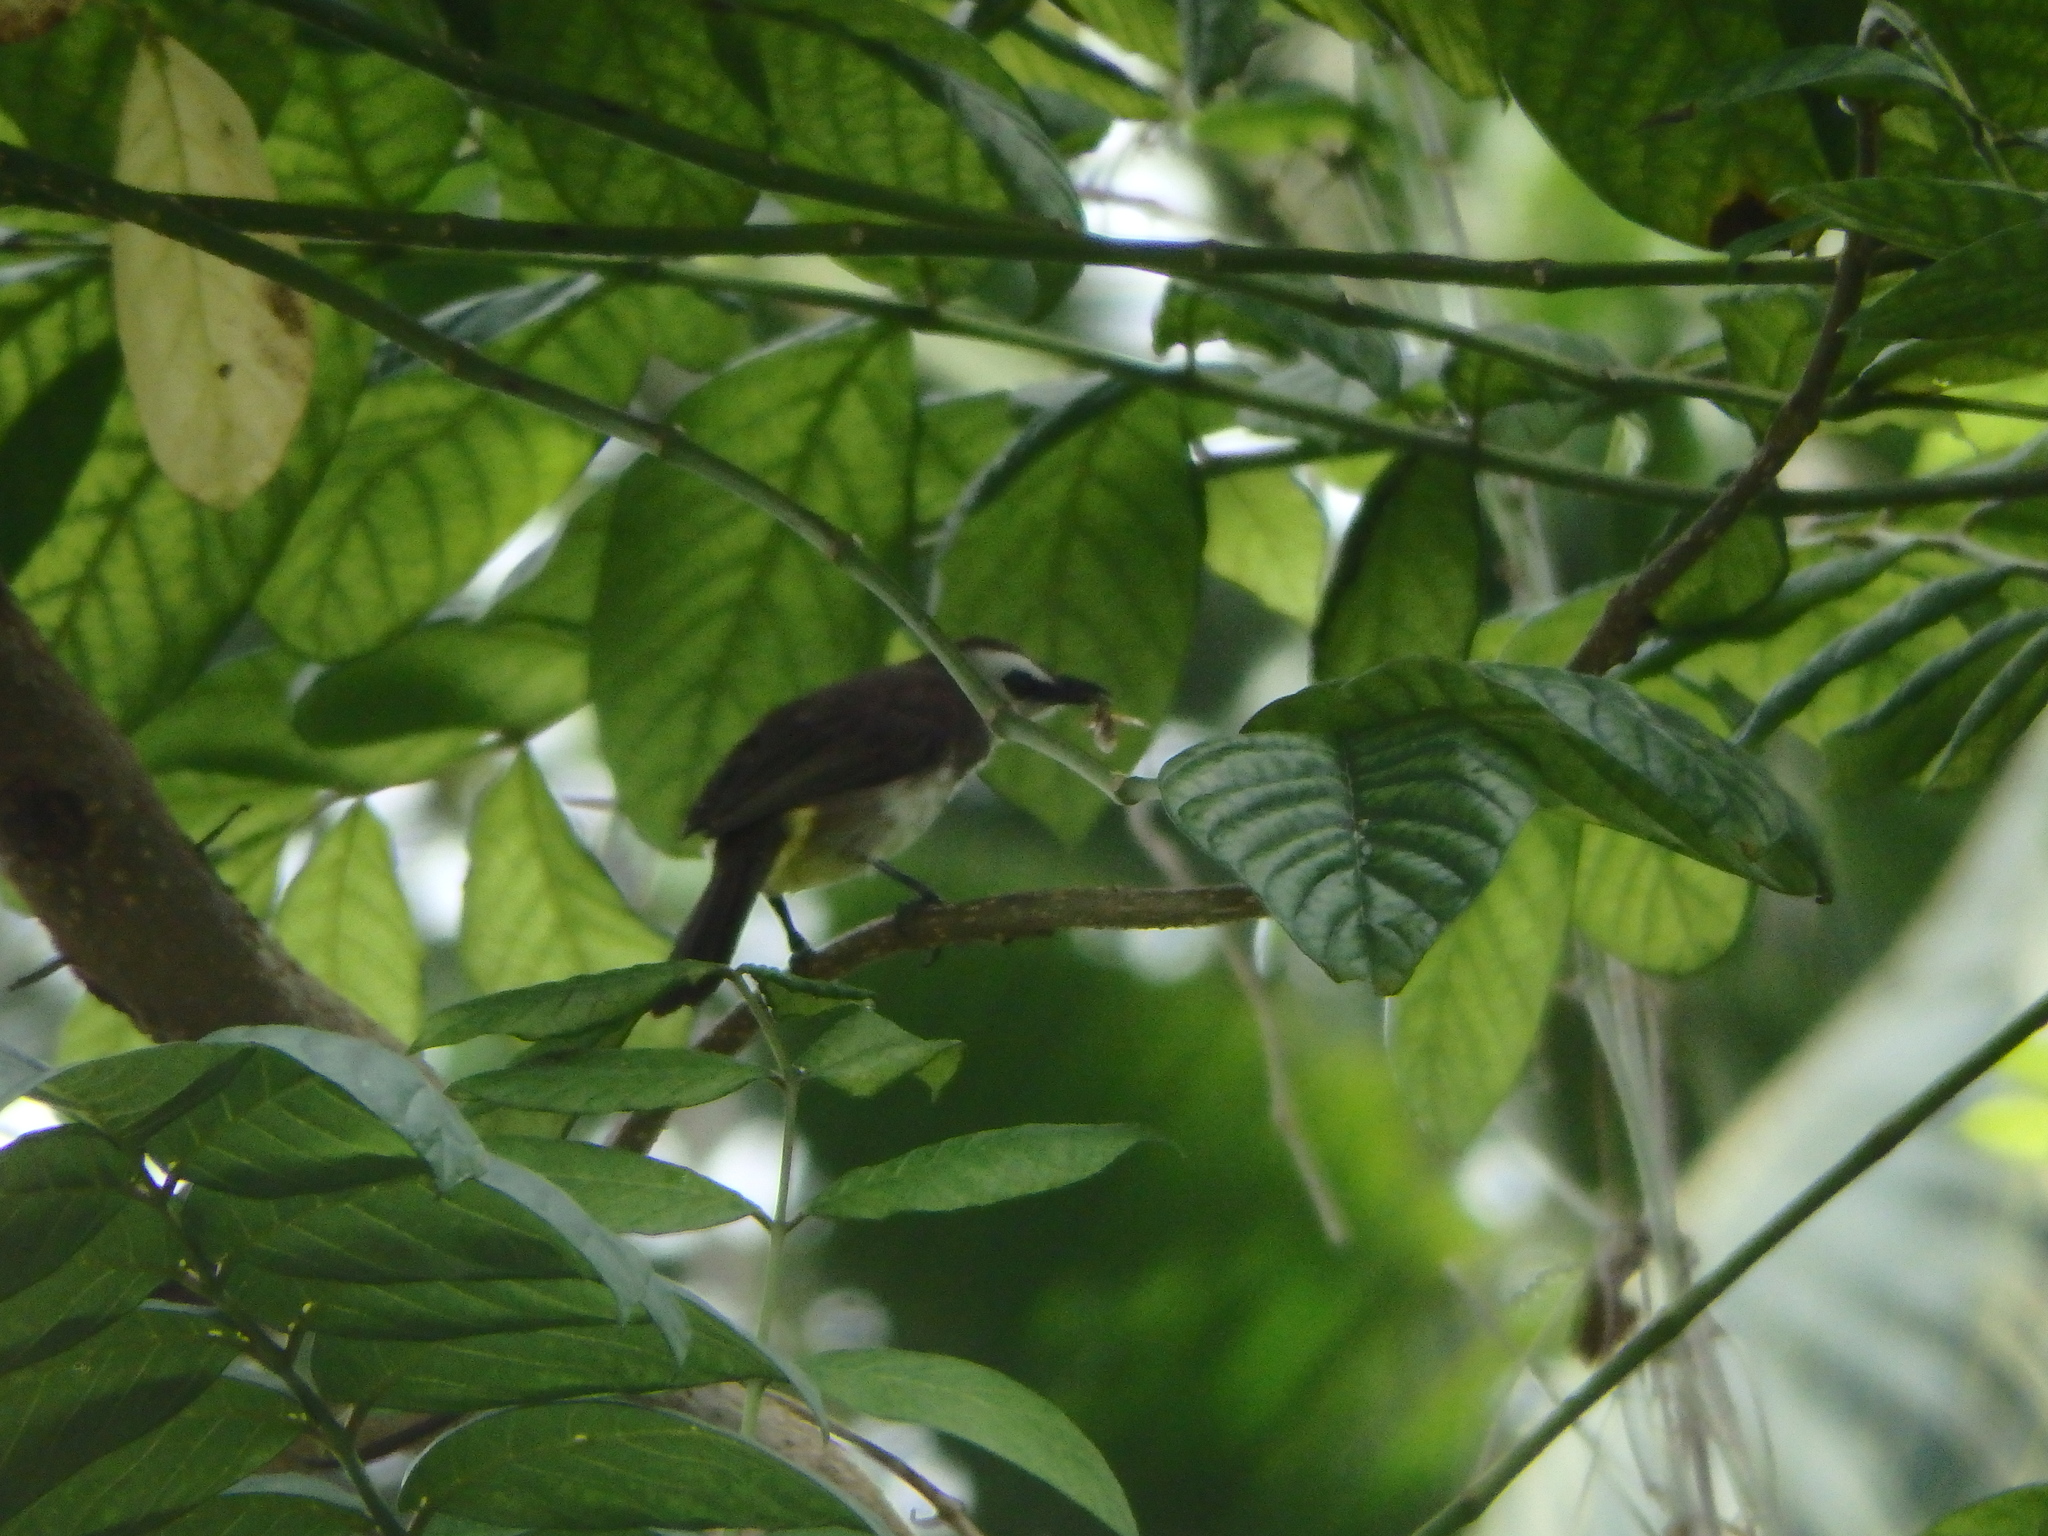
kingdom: Animalia
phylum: Chordata
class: Aves
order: Passeriformes
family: Pycnonotidae
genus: Pycnonotus
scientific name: Pycnonotus goiavier
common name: Yellow-vented bulbul
